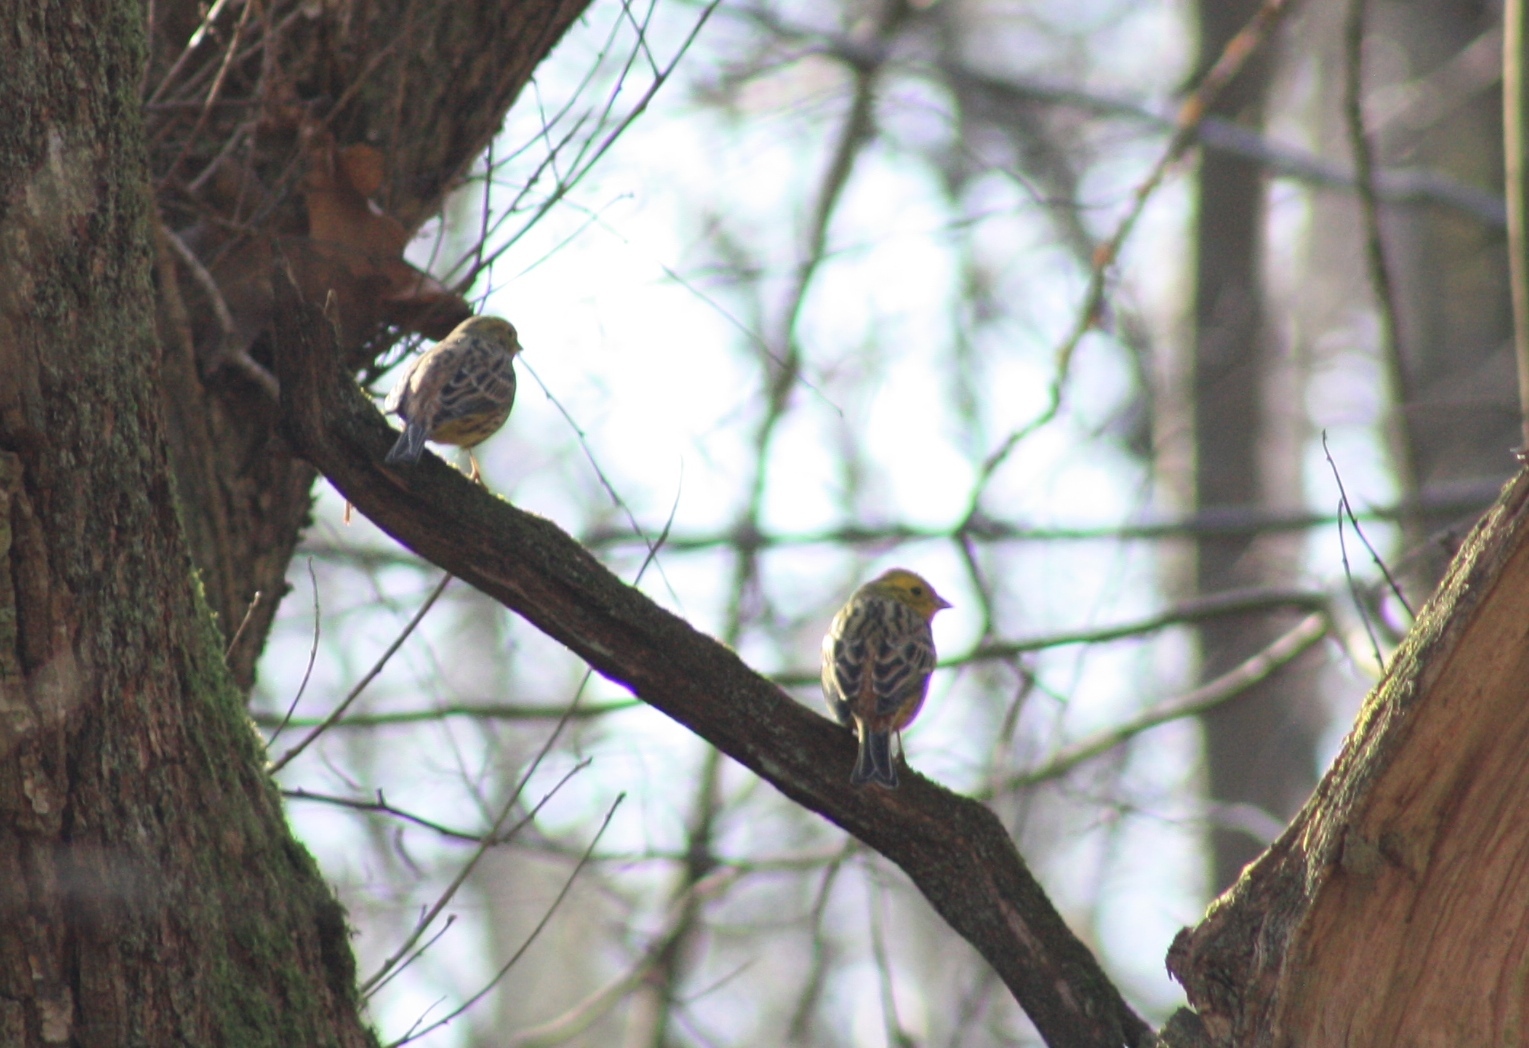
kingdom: Animalia
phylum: Chordata
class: Aves
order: Passeriformes
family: Emberizidae
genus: Emberiza
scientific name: Emberiza citrinella
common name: Yellowhammer
